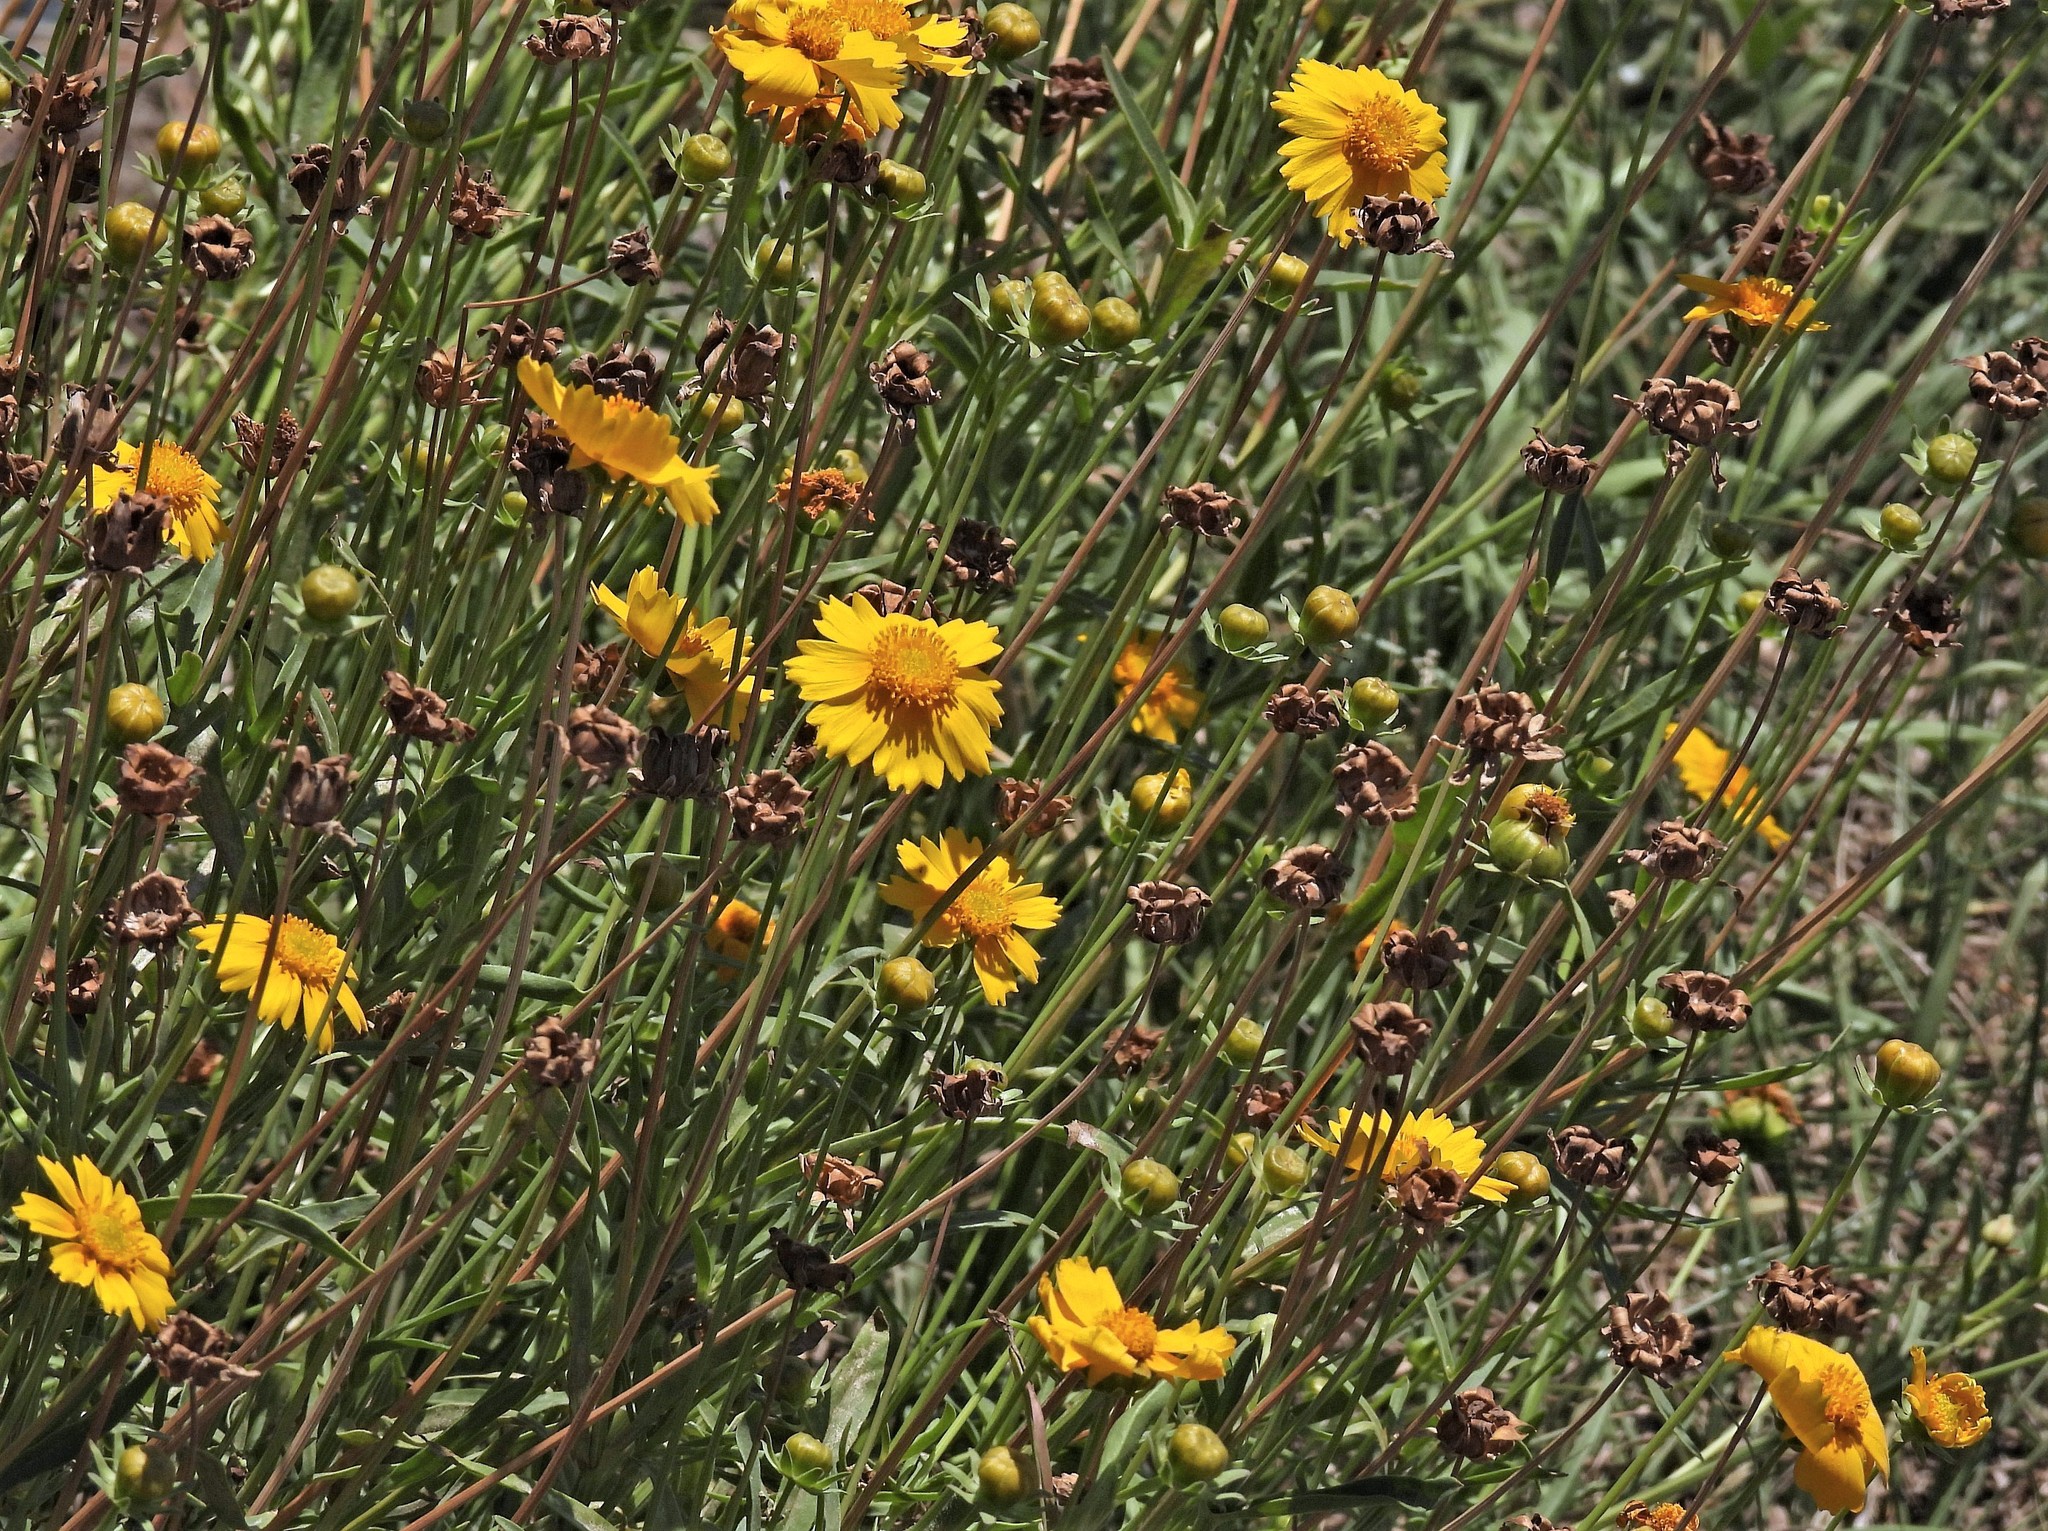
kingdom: Plantae
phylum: Tracheophyta
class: Magnoliopsida
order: Asterales
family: Asteraceae
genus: Coreopsis
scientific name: Coreopsis lanceolata
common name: Garden coreopsis
